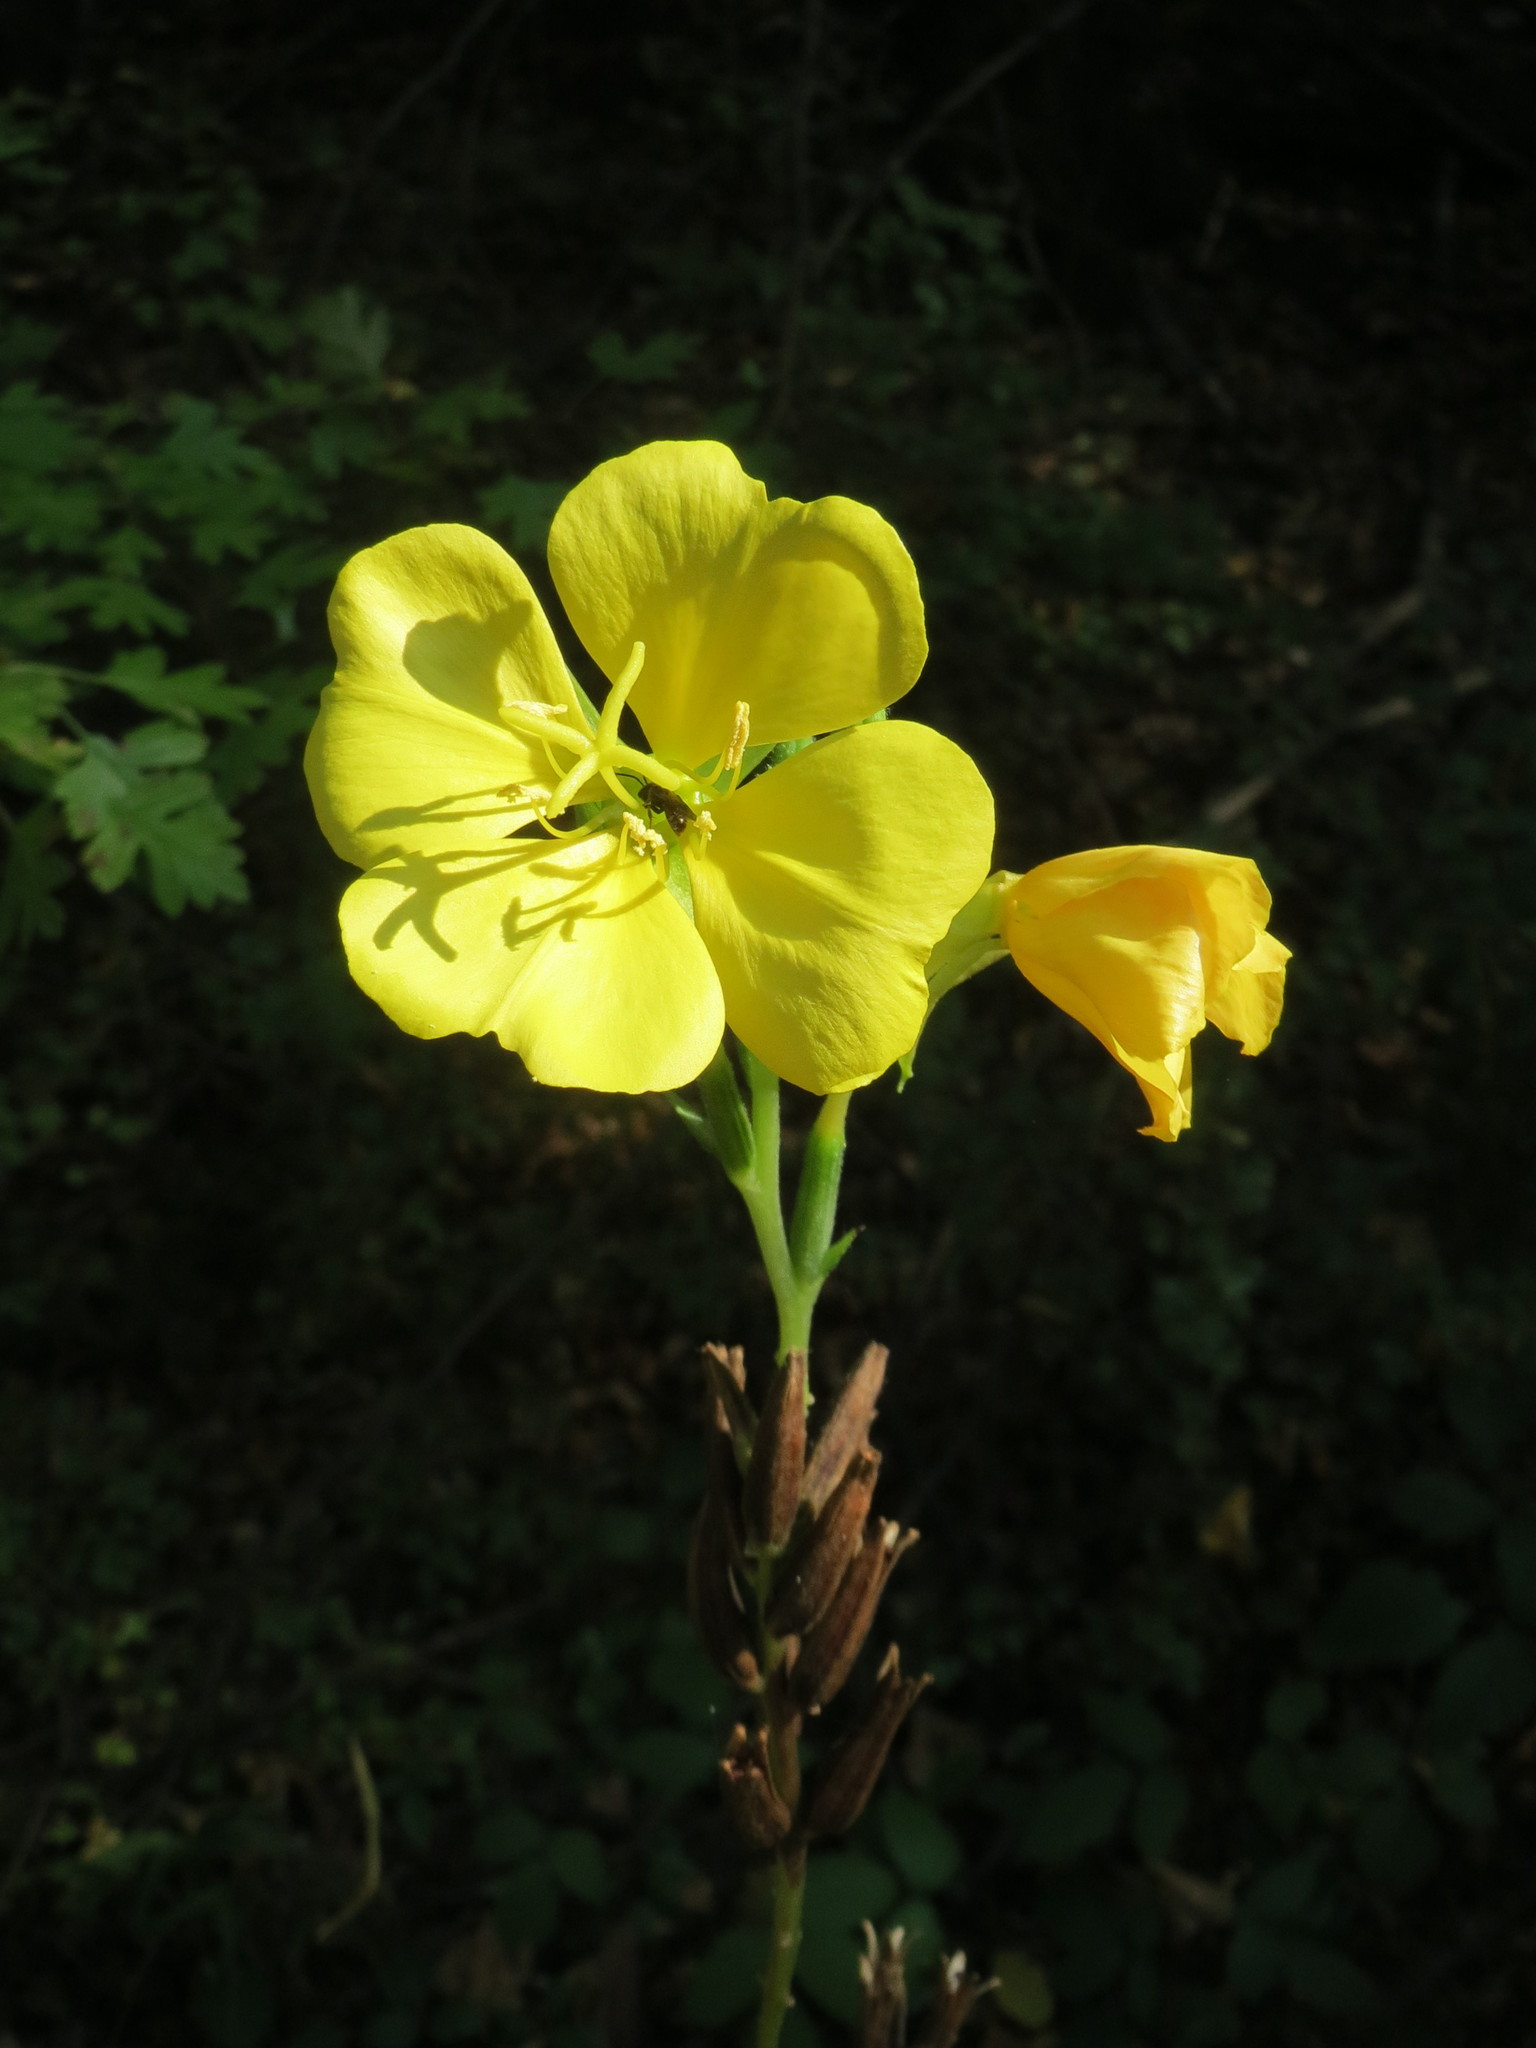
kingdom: Plantae
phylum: Tracheophyta
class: Magnoliopsida
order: Myrtales
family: Onagraceae
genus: Oenothera
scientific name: Oenothera biennis
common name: Common evening-primrose
